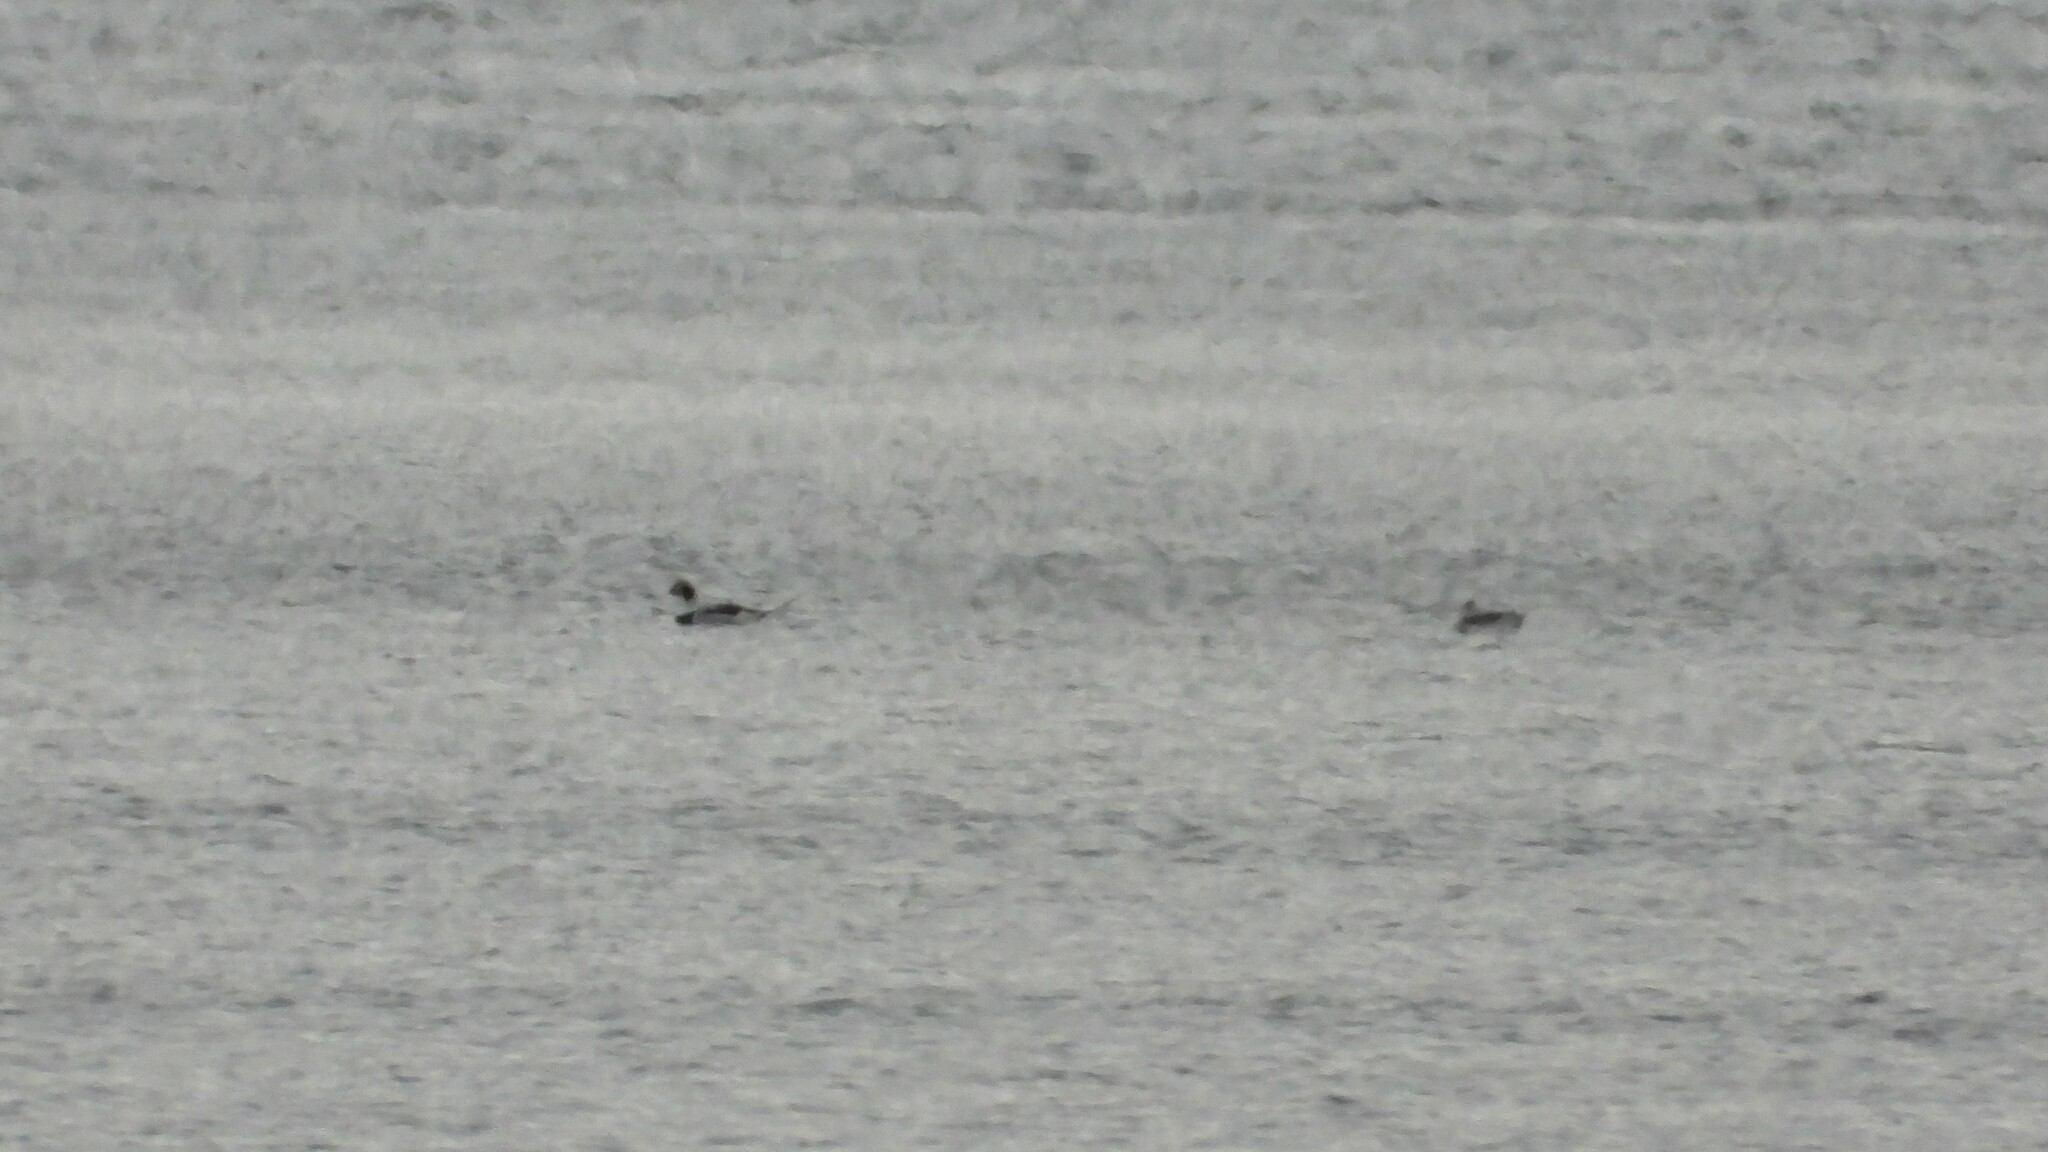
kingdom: Animalia
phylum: Chordata
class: Aves
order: Anseriformes
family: Anatidae
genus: Clangula
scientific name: Clangula hyemalis
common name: Long-tailed duck
